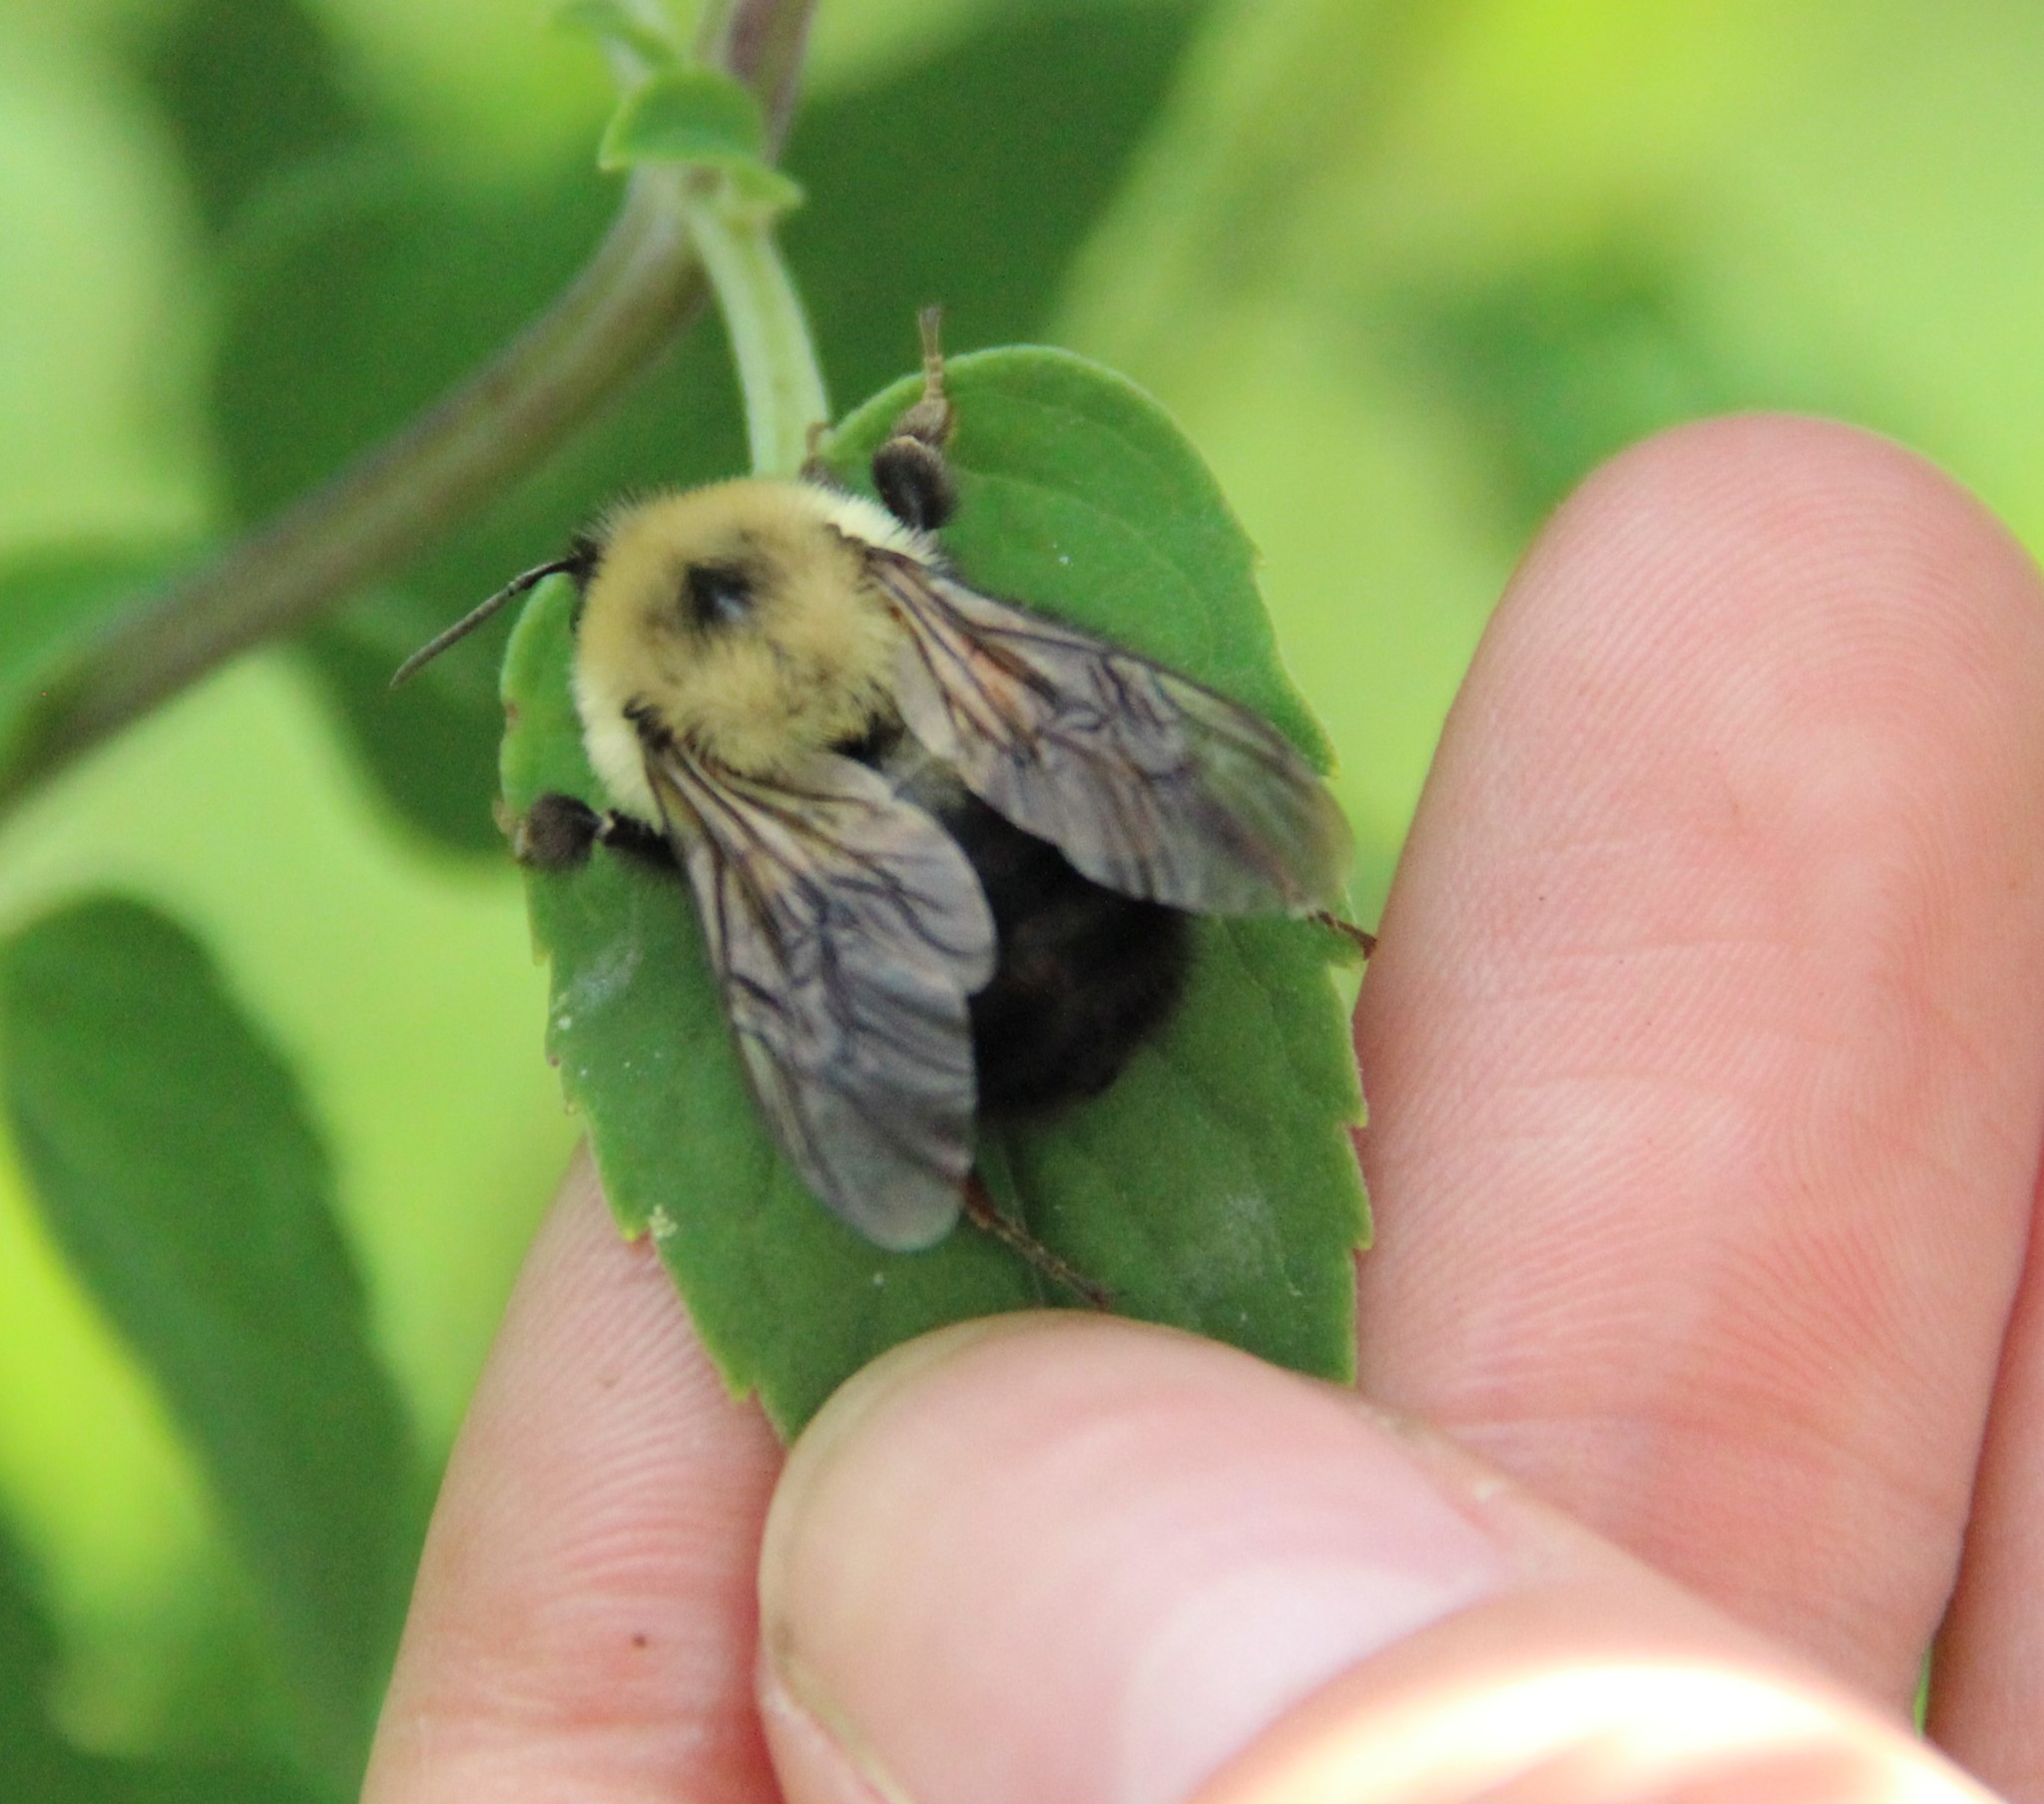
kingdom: Animalia
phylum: Arthropoda
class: Insecta
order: Hymenoptera
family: Apidae
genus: Bombus
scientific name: Bombus bimaculatus
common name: Two-spotted bumble bee
